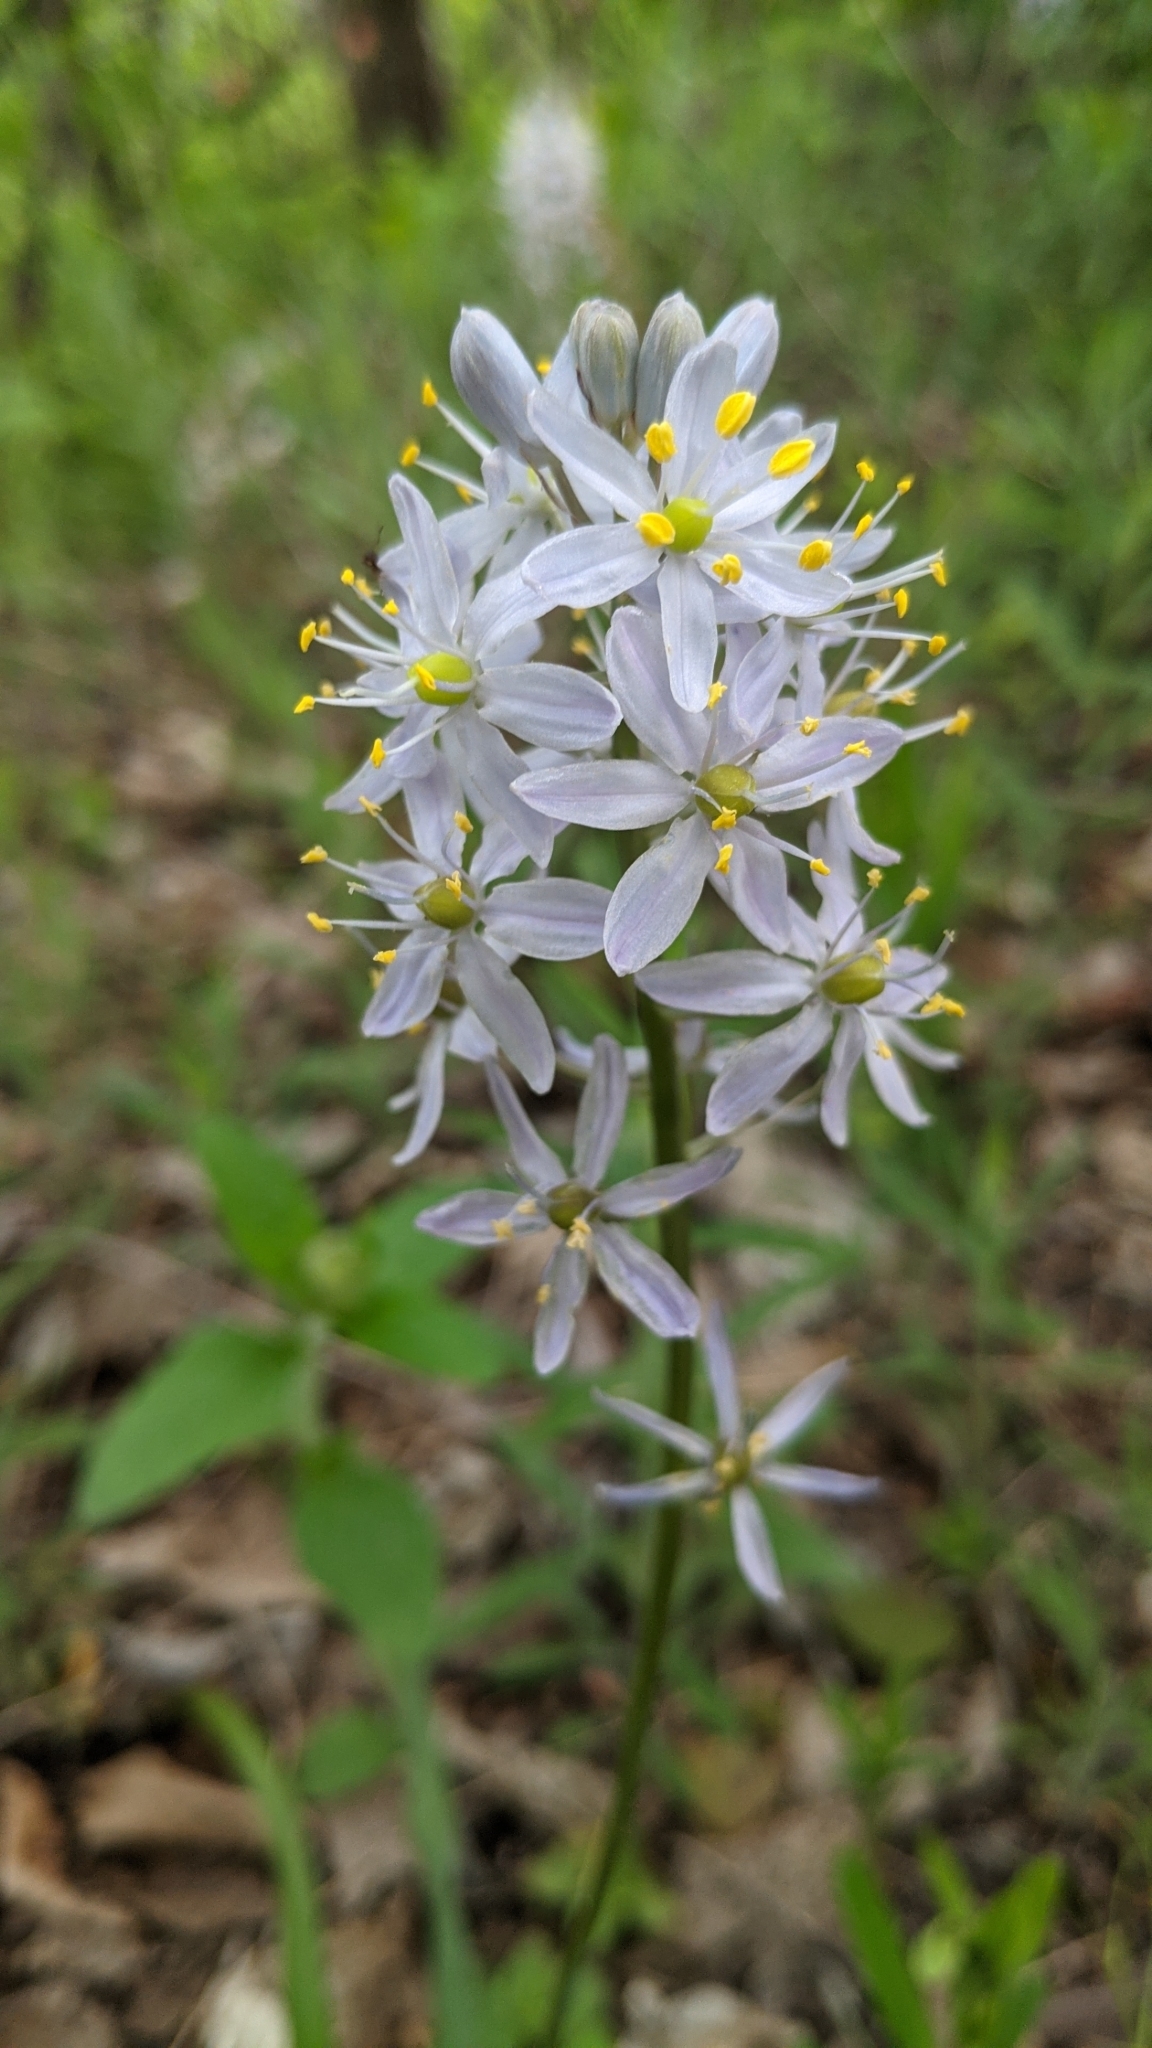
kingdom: Plantae
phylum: Tracheophyta
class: Liliopsida
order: Asparagales
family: Asparagaceae
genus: Camassia
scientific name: Camassia scilloides
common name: Wild hyacinth
